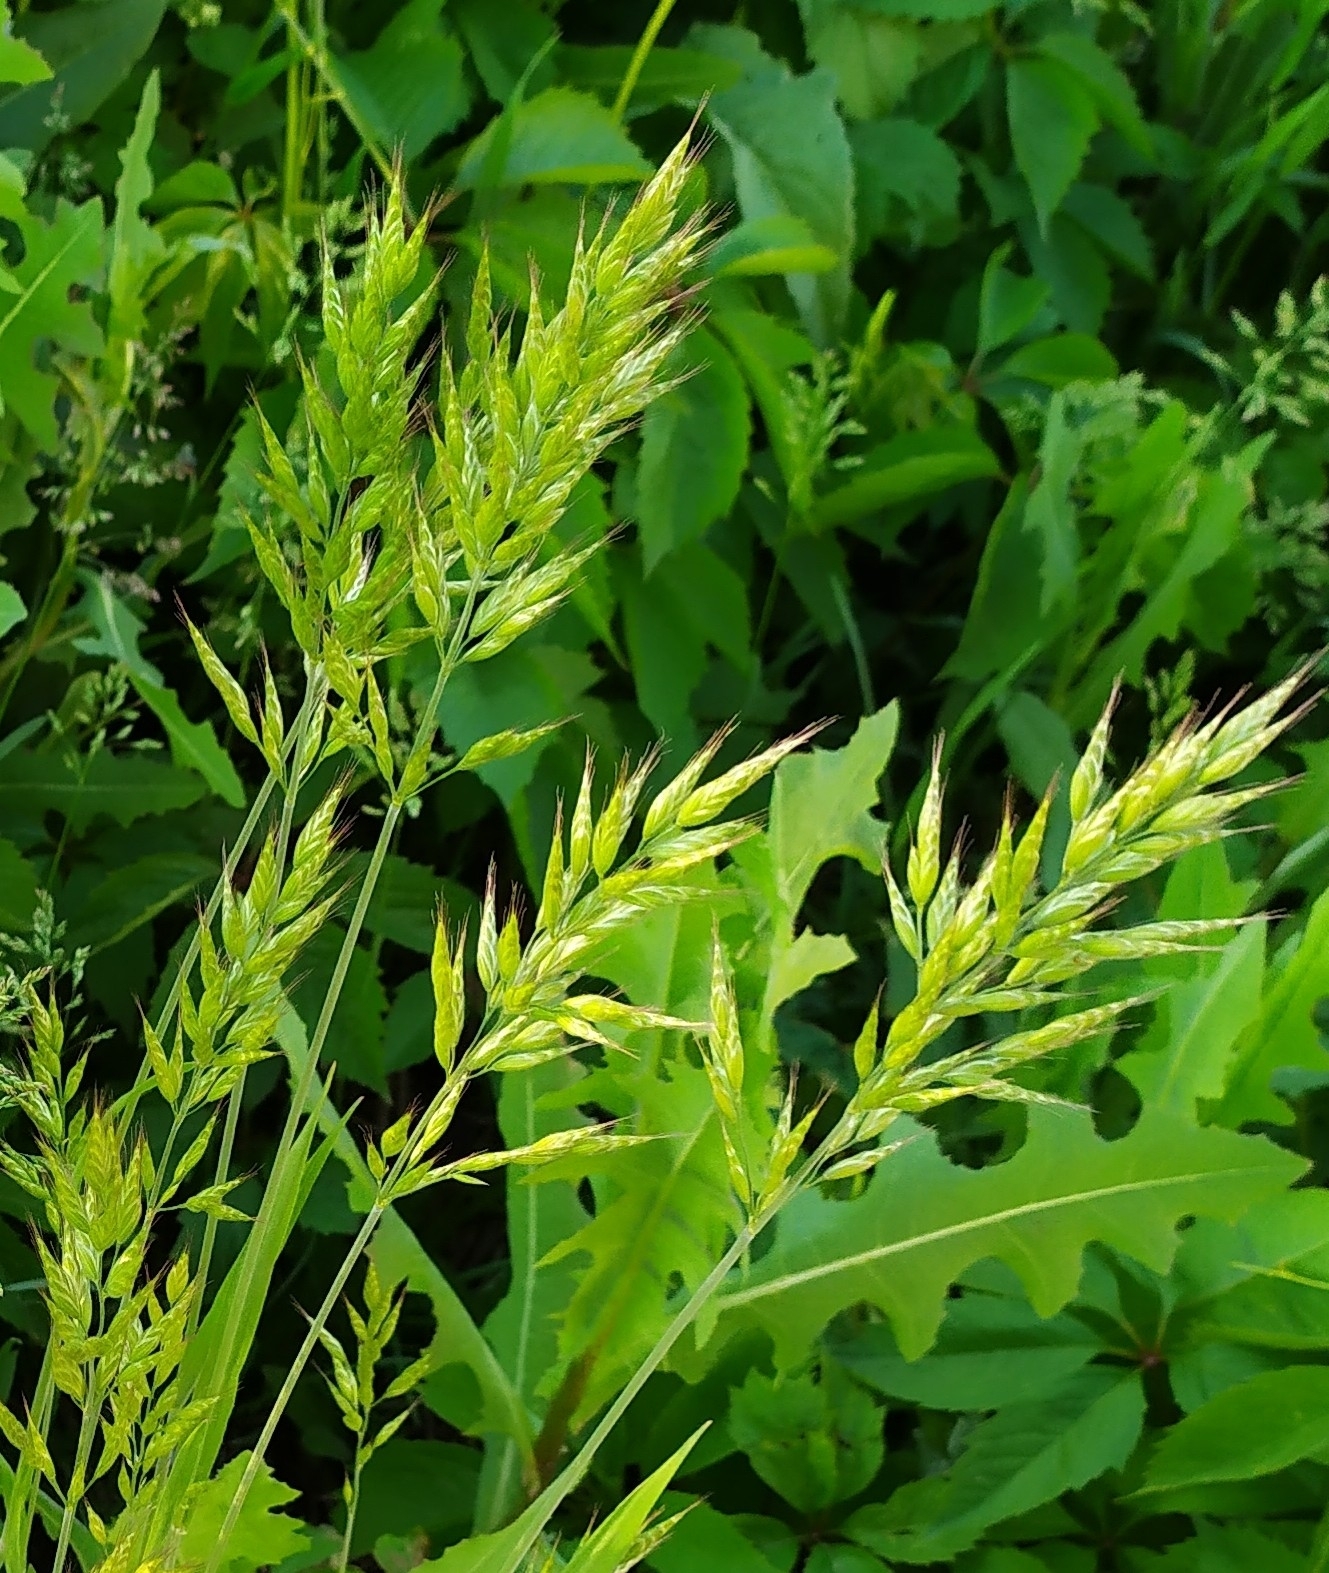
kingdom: Plantae
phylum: Tracheophyta
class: Liliopsida
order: Poales
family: Poaceae
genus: Bromus
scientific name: Bromus hordeaceus
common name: Soft brome
